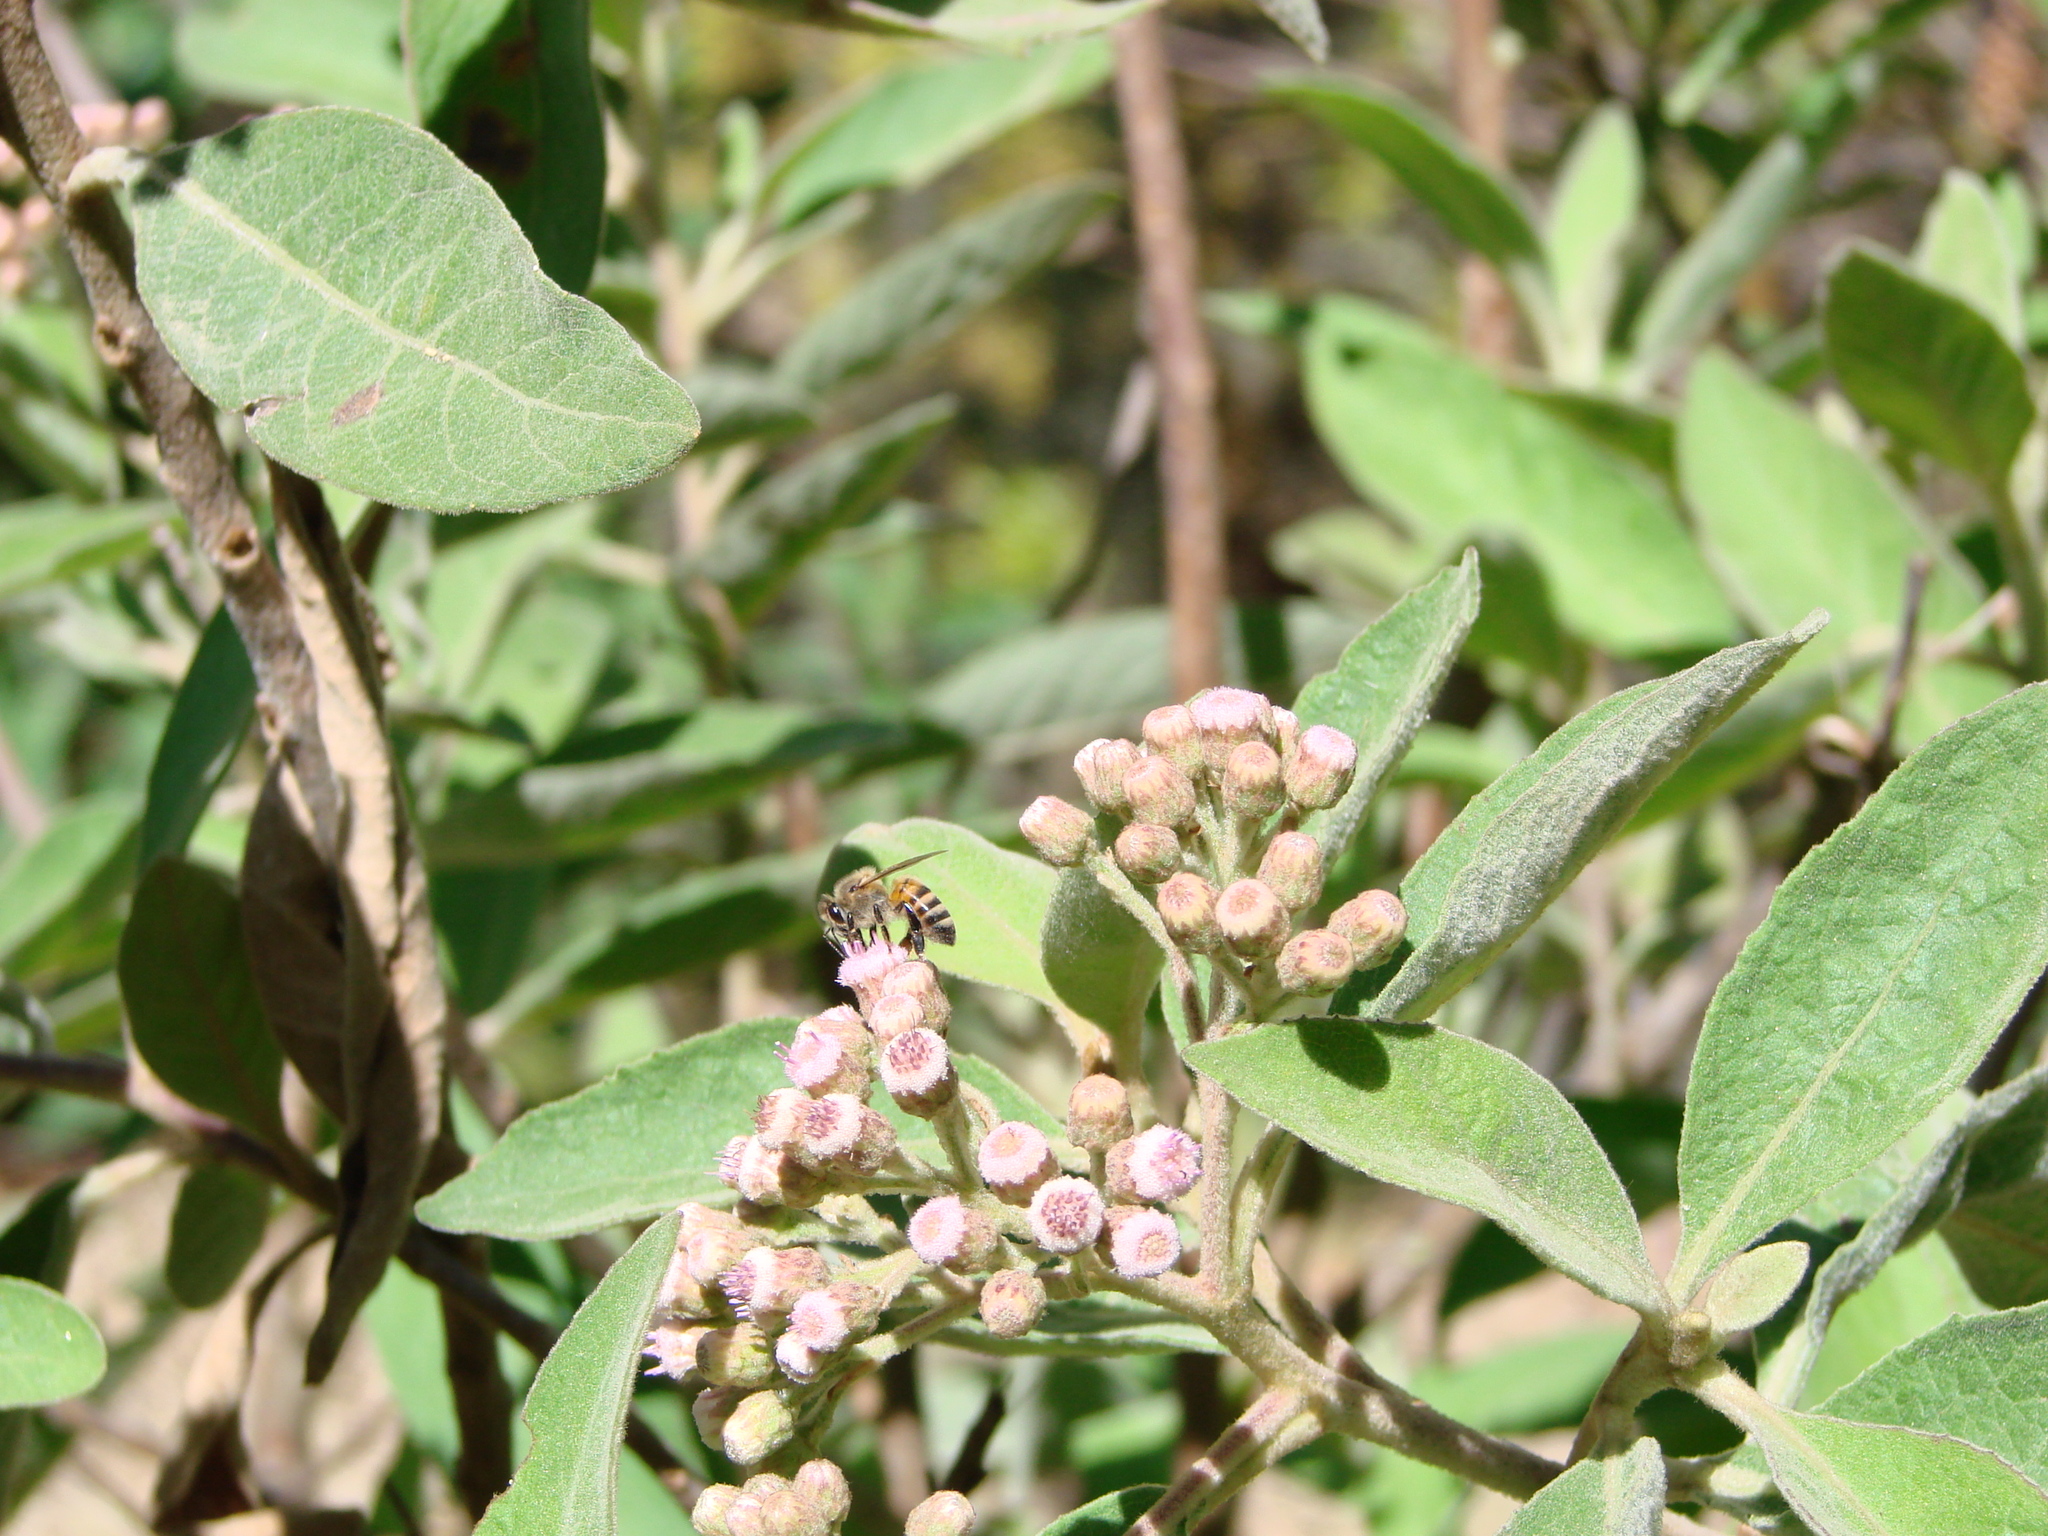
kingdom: Plantae
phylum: Tracheophyta
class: Magnoliopsida
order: Asterales
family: Asteraceae
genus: Pluchea
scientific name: Pluchea carolinensis
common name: Marsh fleabane
